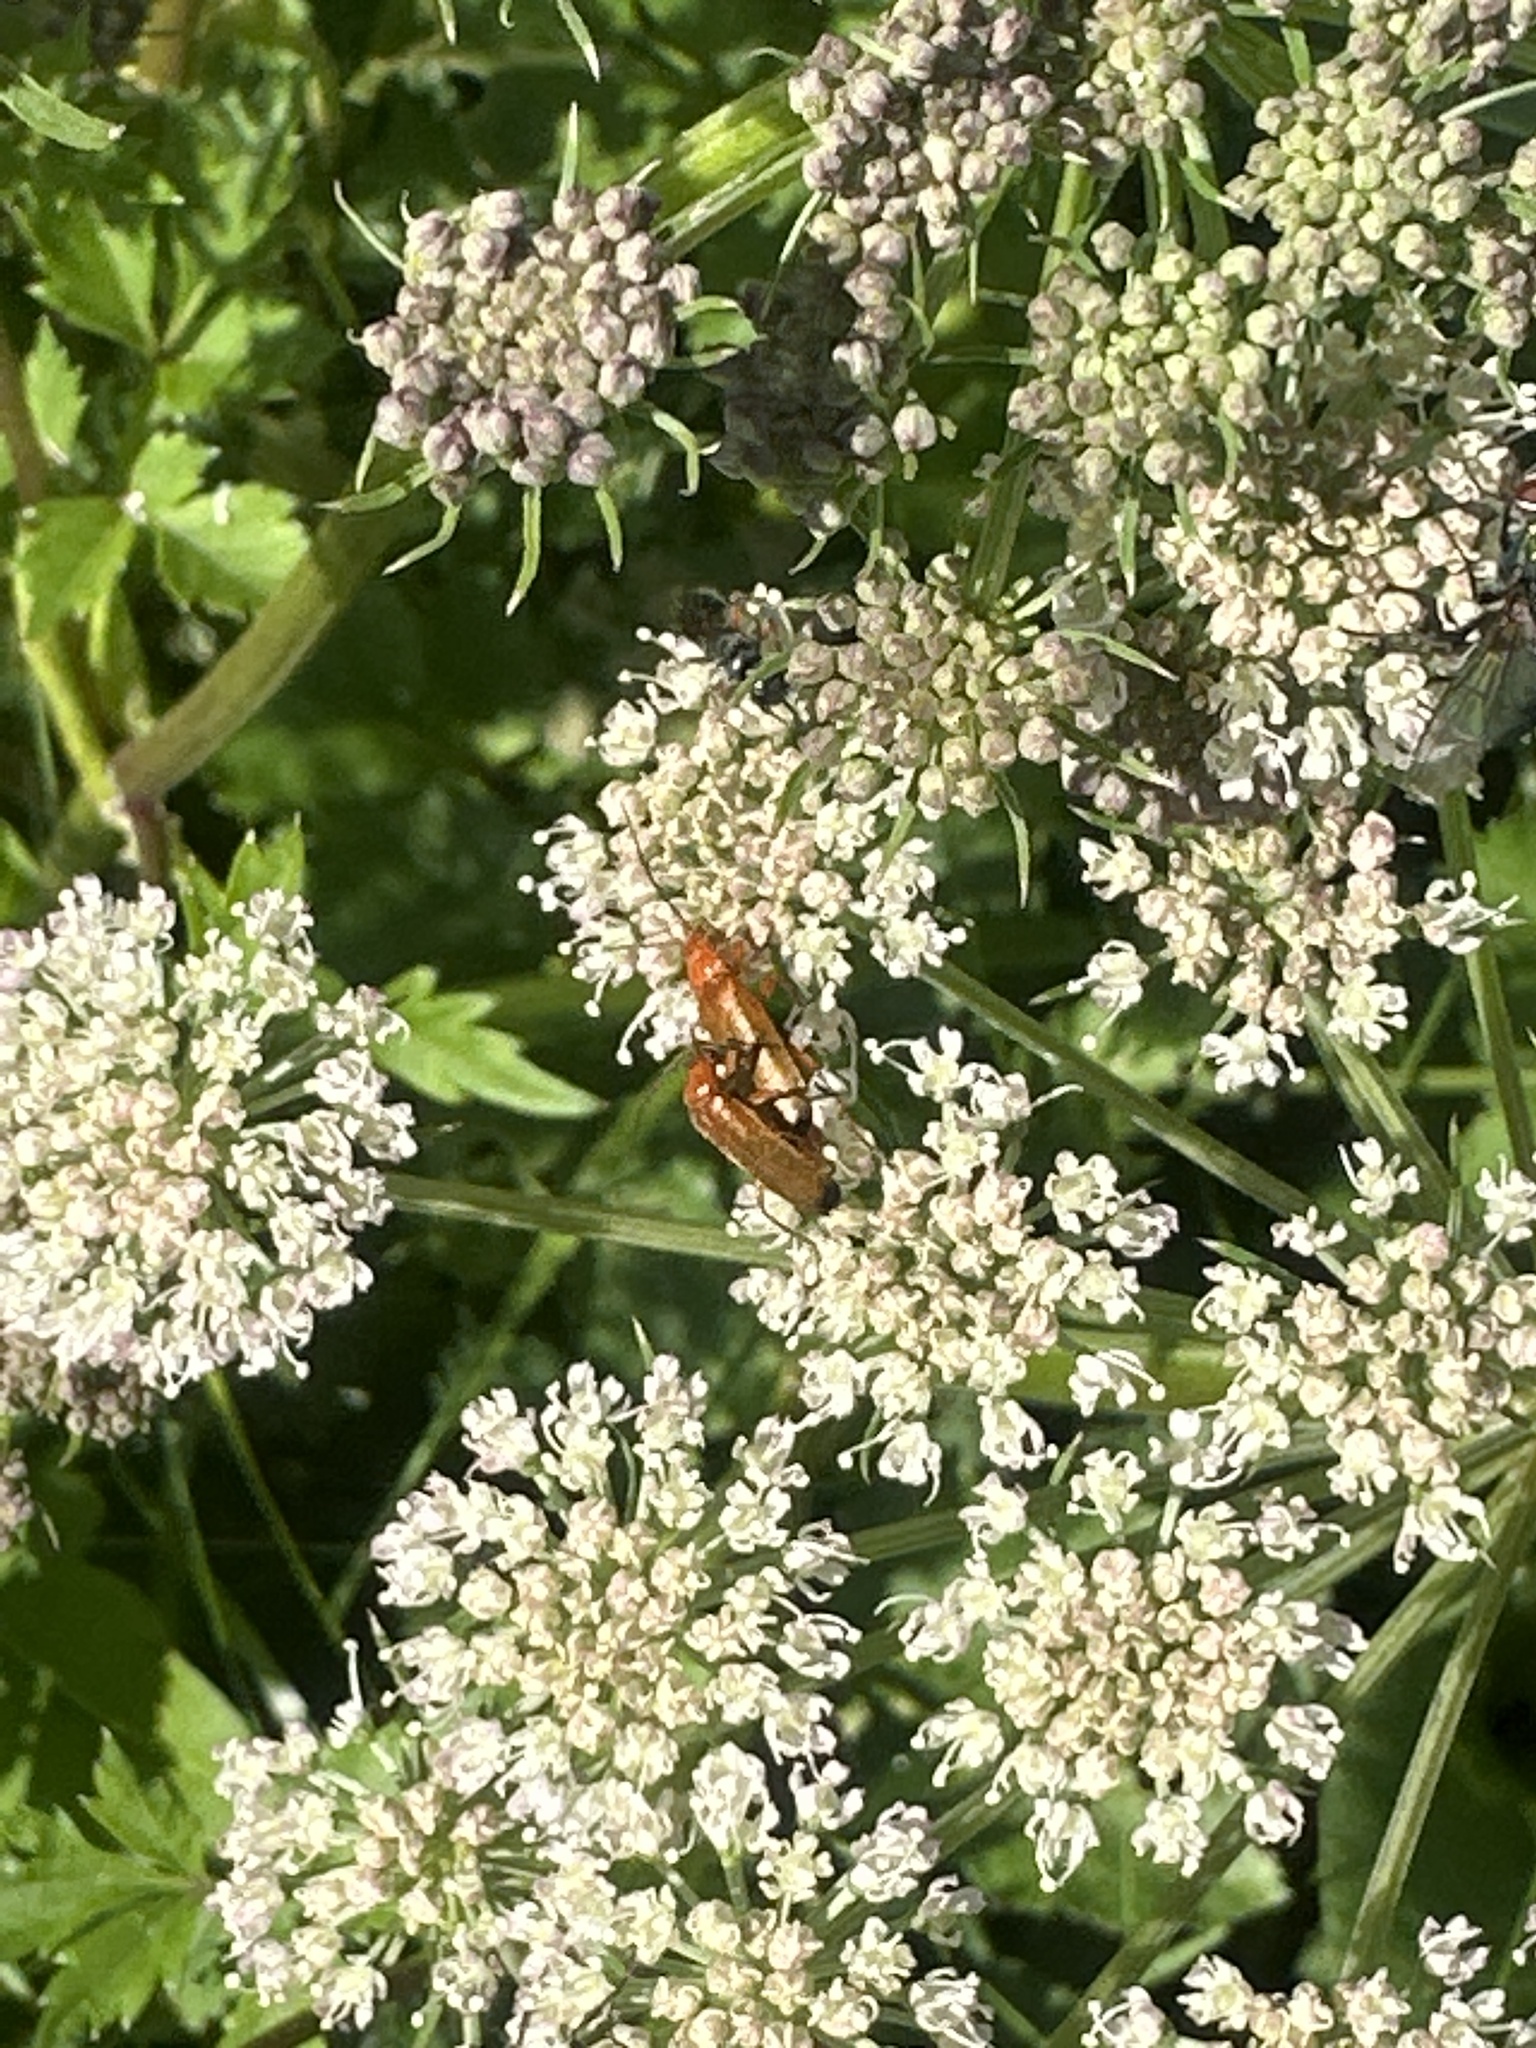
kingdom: Animalia
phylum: Arthropoda
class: Insecta
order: Coleoptera
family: Cantharidae
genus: Rhagonycha
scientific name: Rhagonycha fulva
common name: Common red soldier beetle
